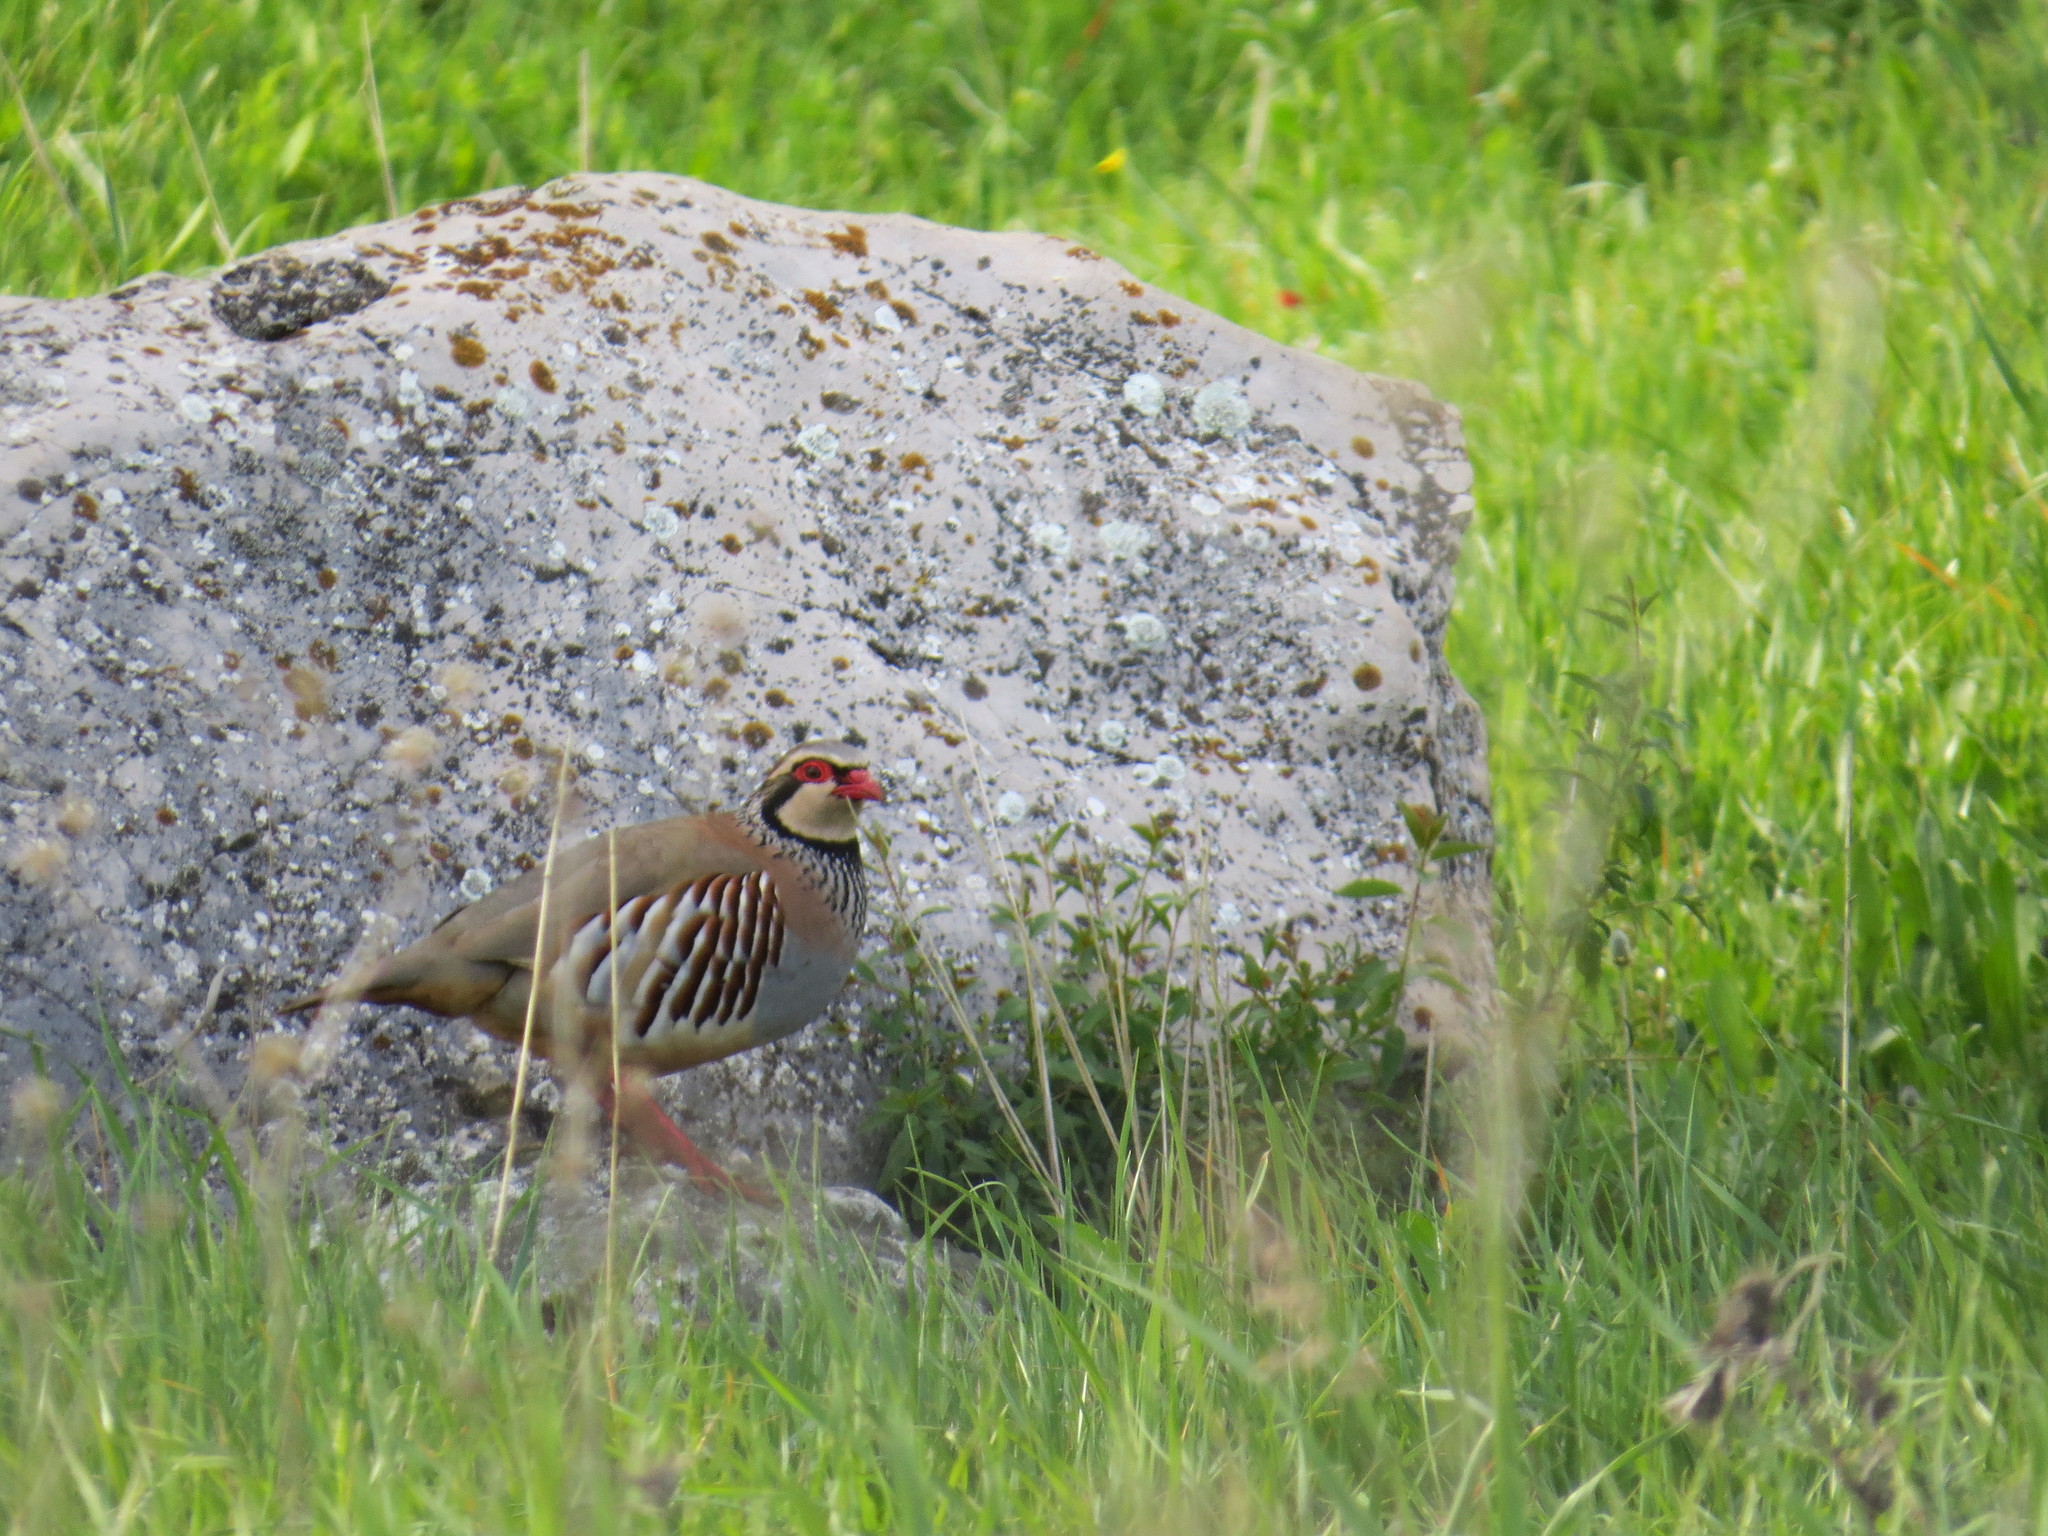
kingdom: Animalia
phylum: Chordata
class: Aves
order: Galliformes
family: Phasianidae
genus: Alectoris
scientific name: Alectoris rufa
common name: Red-legged partridge
